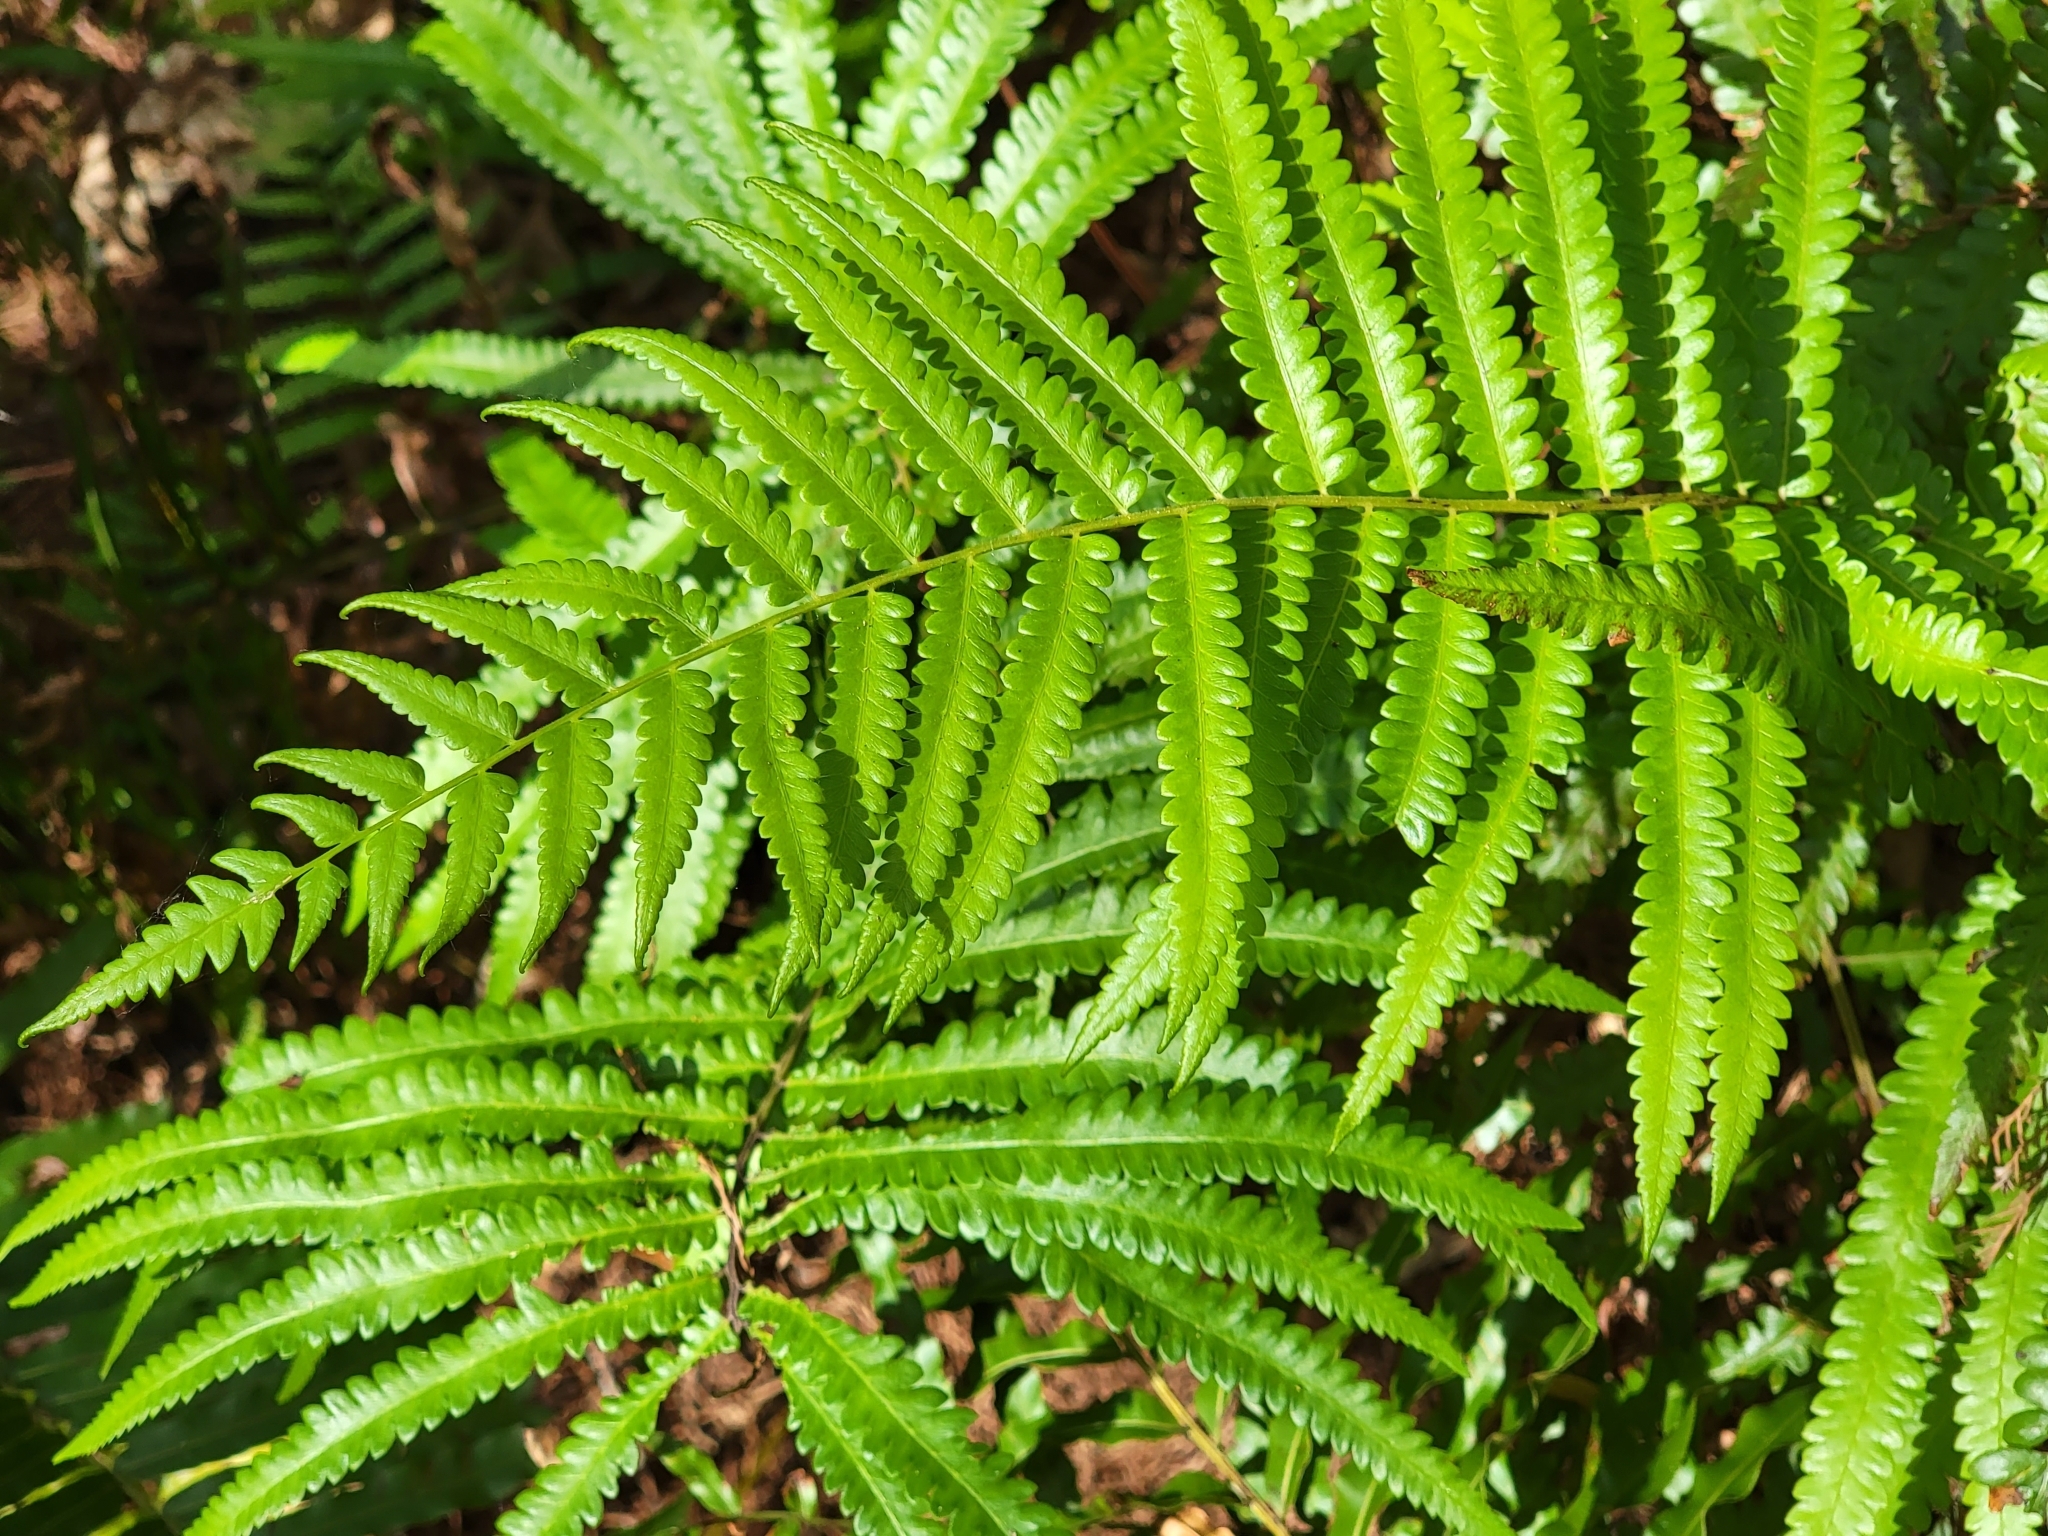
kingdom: Plantae
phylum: Tracheophyta
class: Polypodiopsida
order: Polypodiales
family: Thelypteridaceae
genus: Cyclosorus
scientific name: Cyclosorus interruptus
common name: Neke fern
